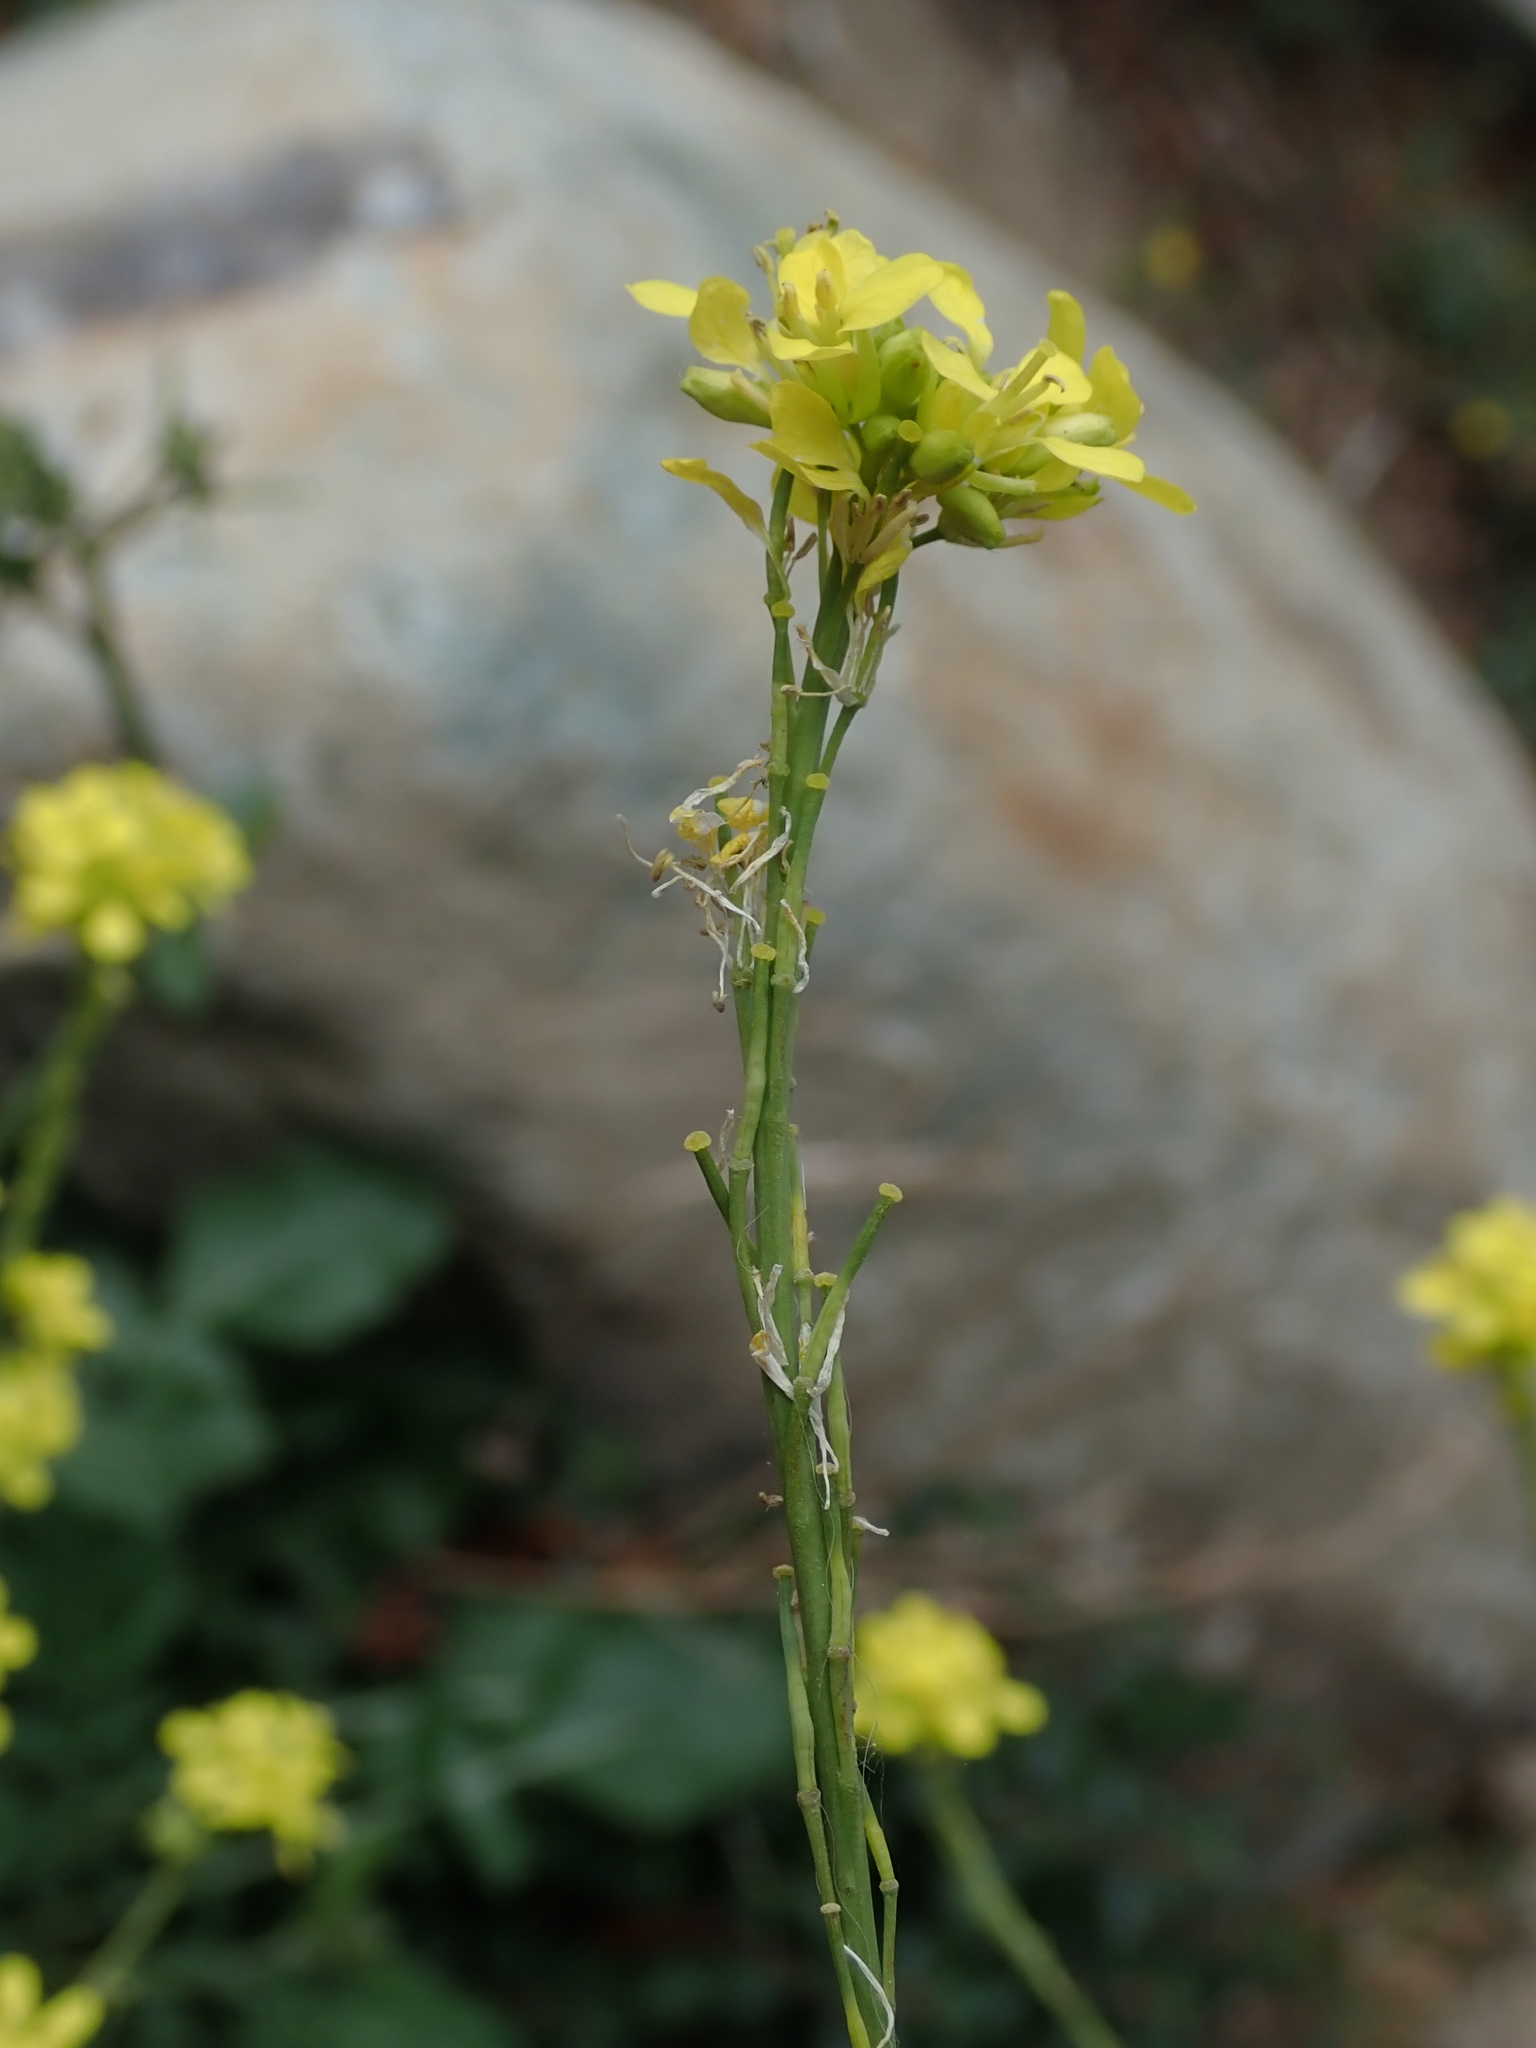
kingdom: Plantae
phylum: Tracheophyta
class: Magnoliopsida
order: Brassicales
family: Brassicaceae
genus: Hirschfeldia
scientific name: Hirschfeldia incana
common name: Hoary mustard
